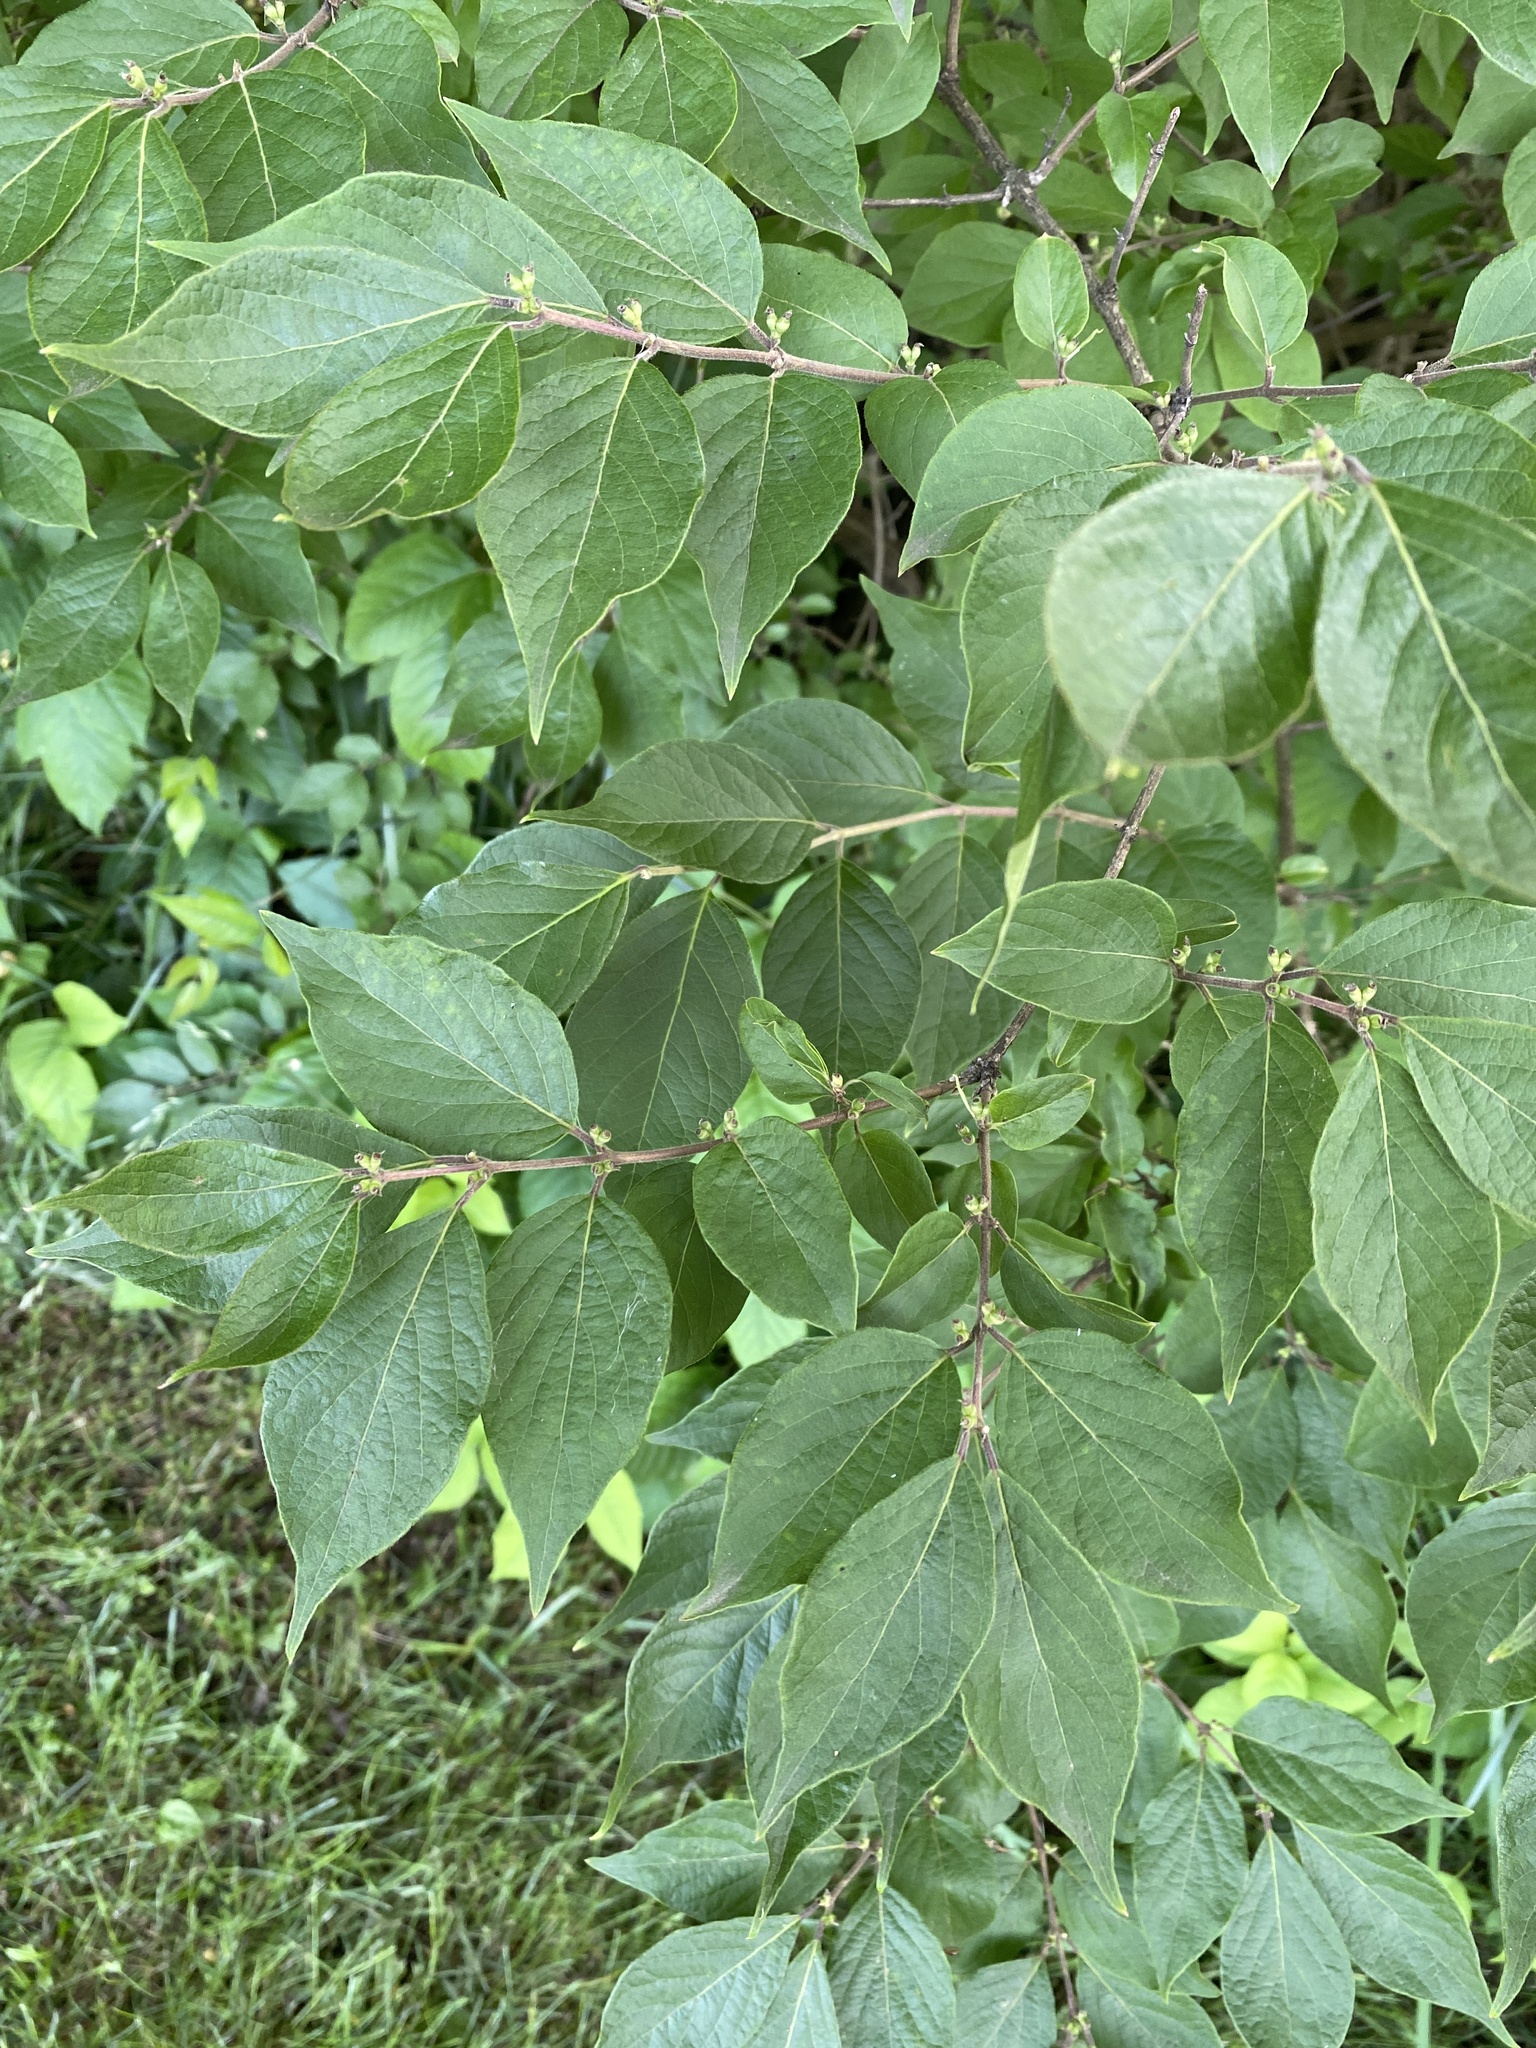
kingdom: Plantae
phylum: Tracheophyta
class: Magnoliopsida
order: Dipsacales
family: Caprifoliaceae
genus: Lonicera
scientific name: Lonicera maackii
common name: Amur honeysuckle
